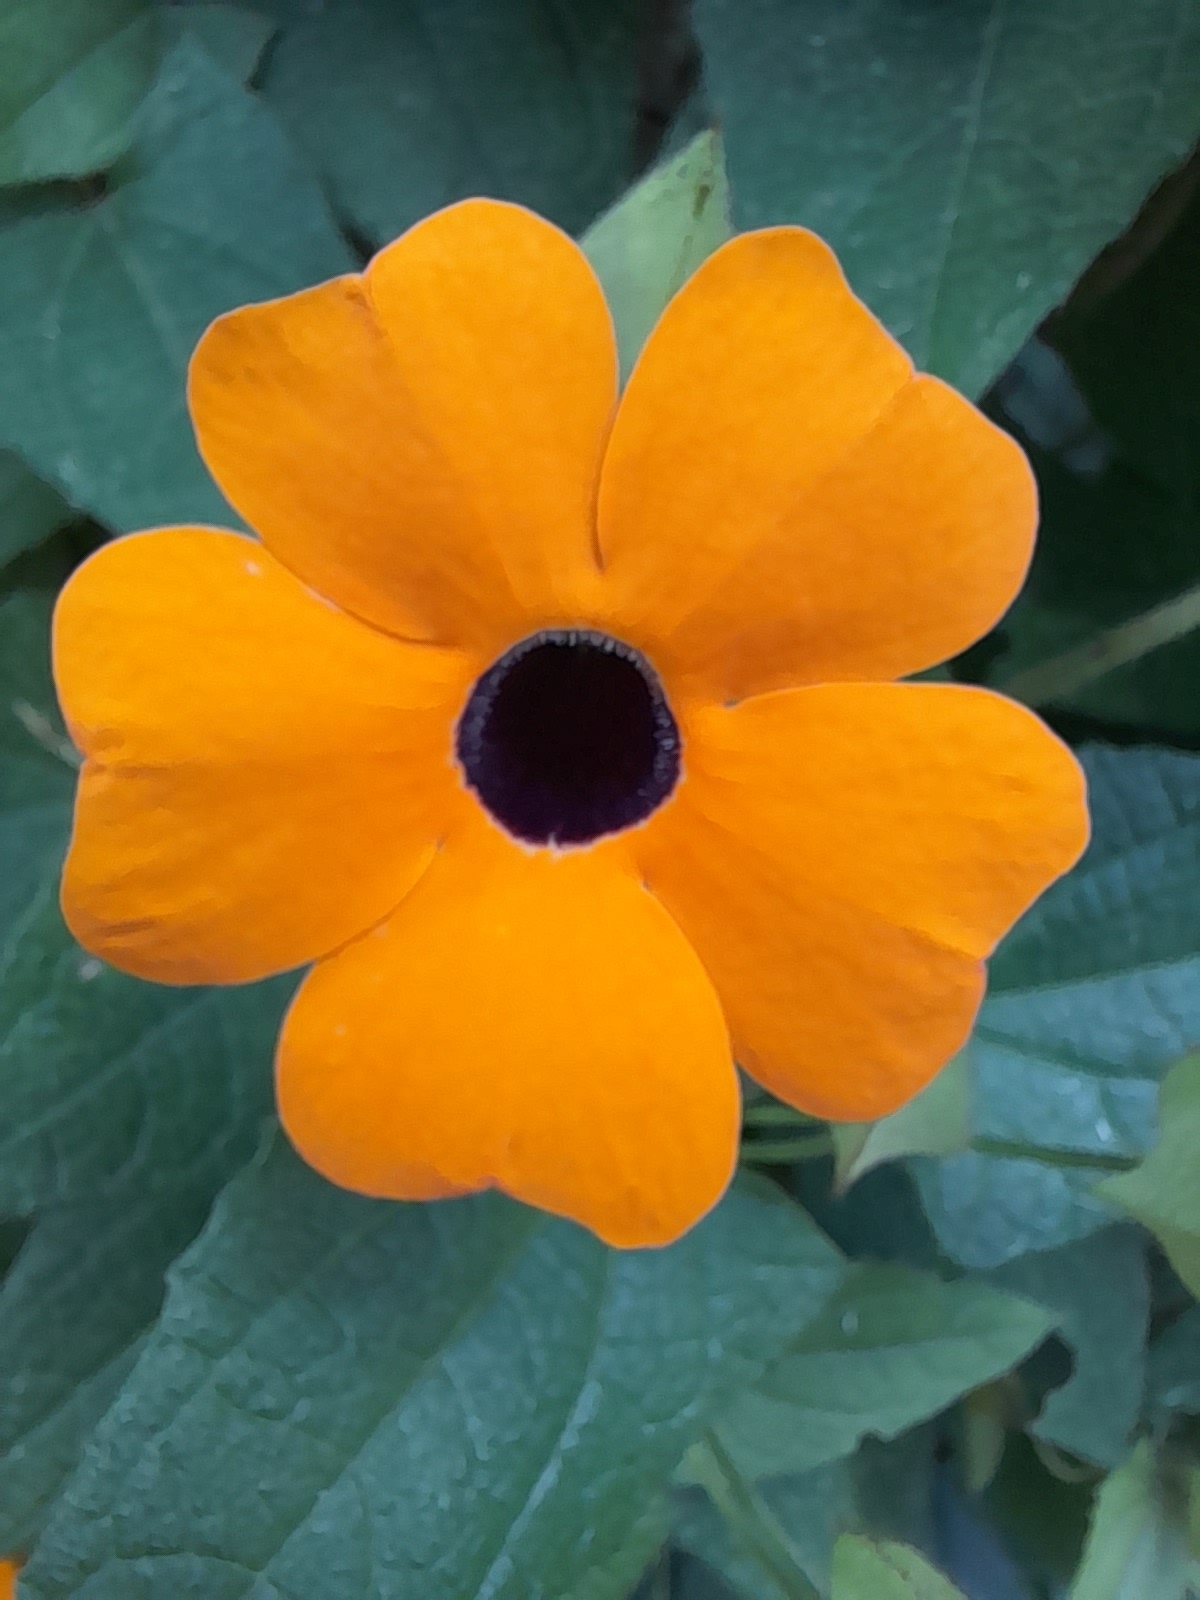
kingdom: Plantae
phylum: Tracheophyta
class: Magnoliopsida
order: Lamiales
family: Acanthaceae
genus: Thunbergia
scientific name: Thunbergia alata
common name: Blackeyed susan vine
